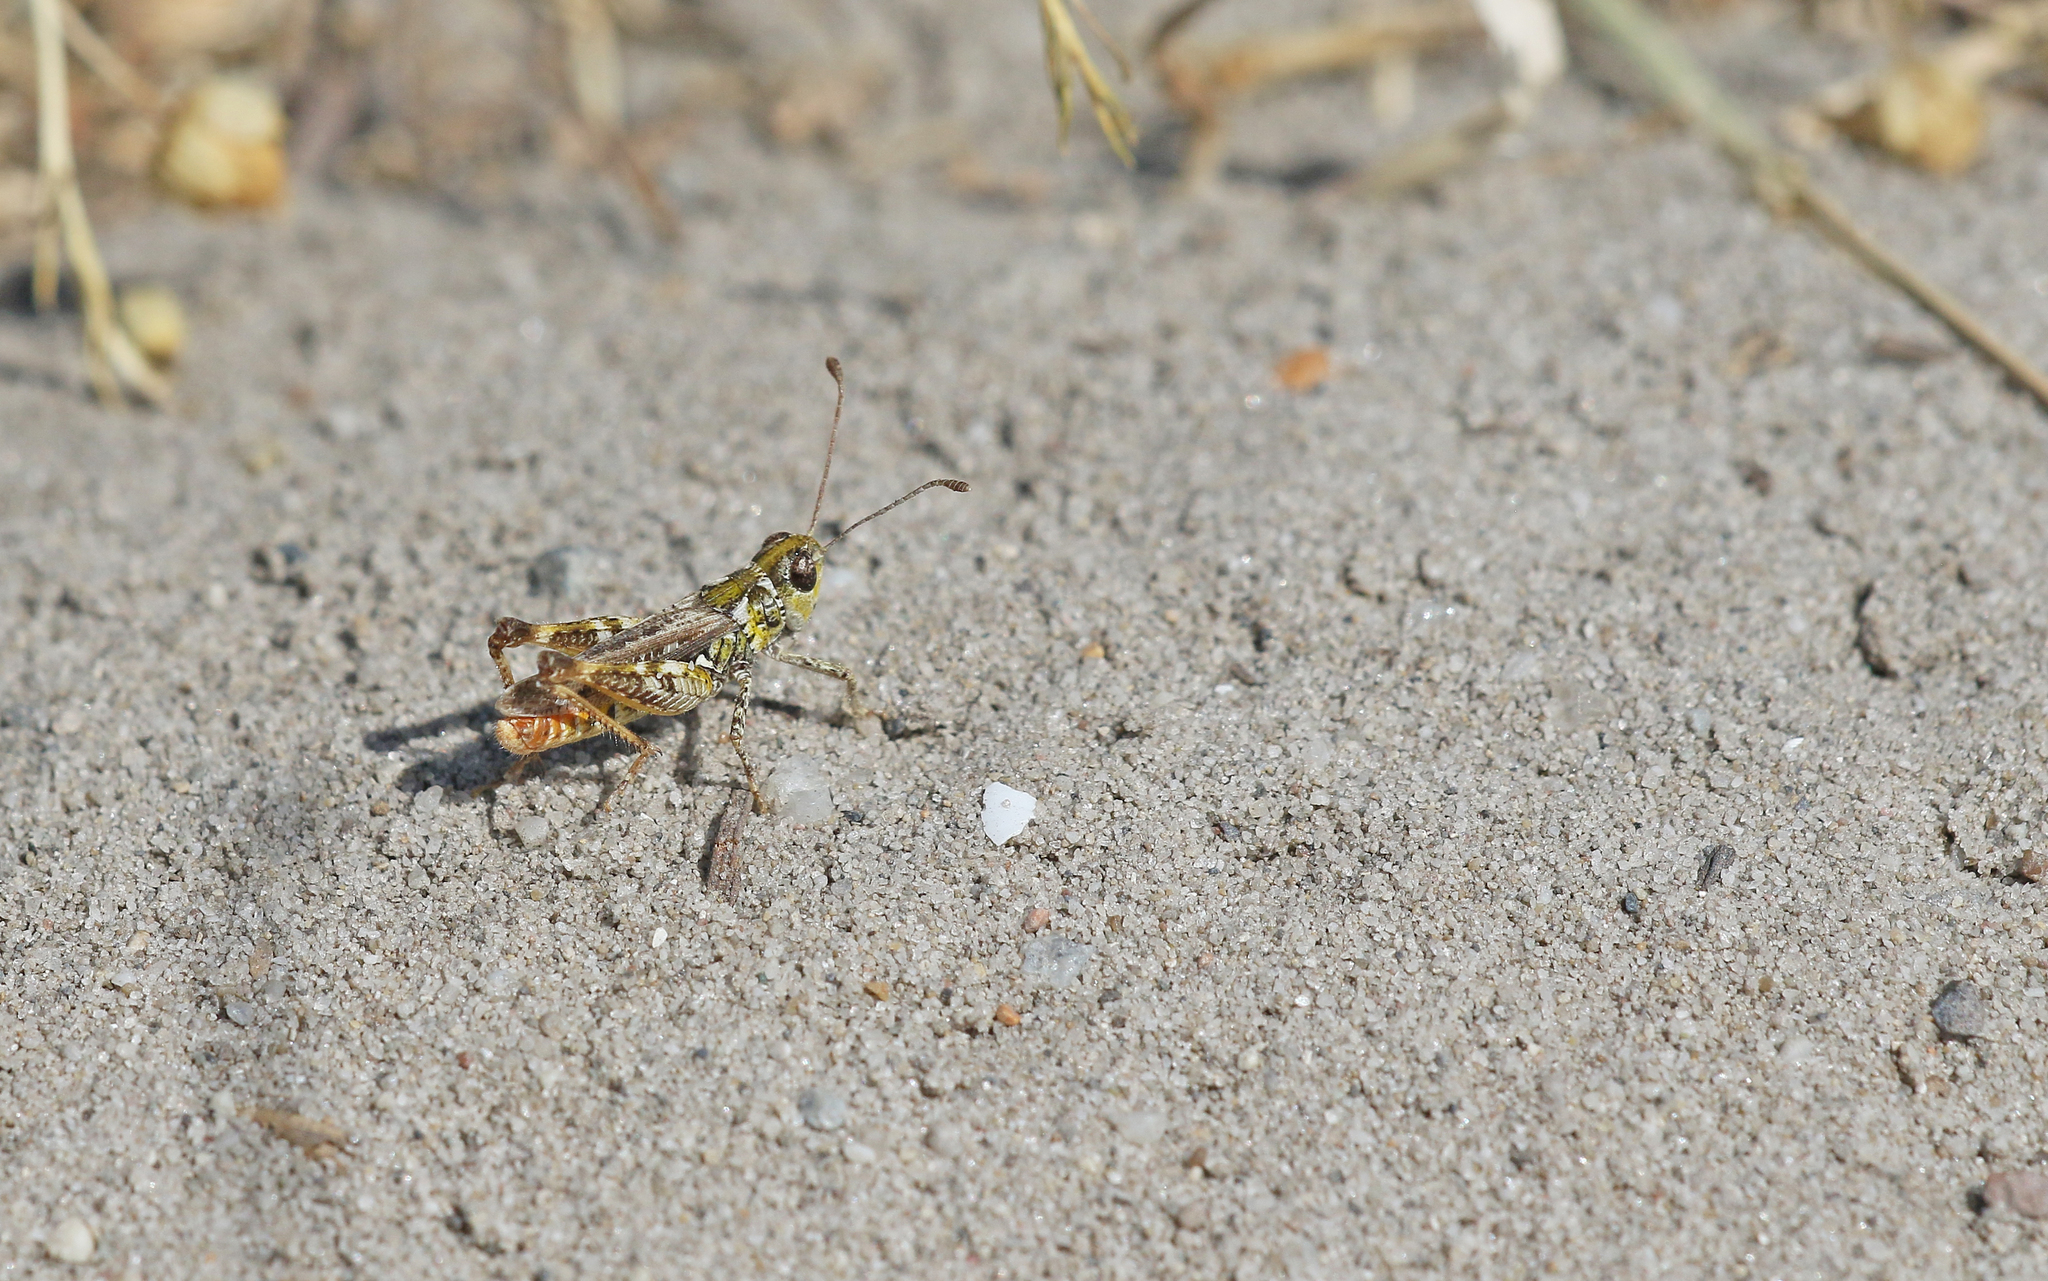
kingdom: Animalia
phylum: Arthropoda
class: Insecta
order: Orthoptera
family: Acrididae
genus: Myrmeleotettix
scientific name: Myrmeleotettix maculatus
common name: Mottled grasshopper
